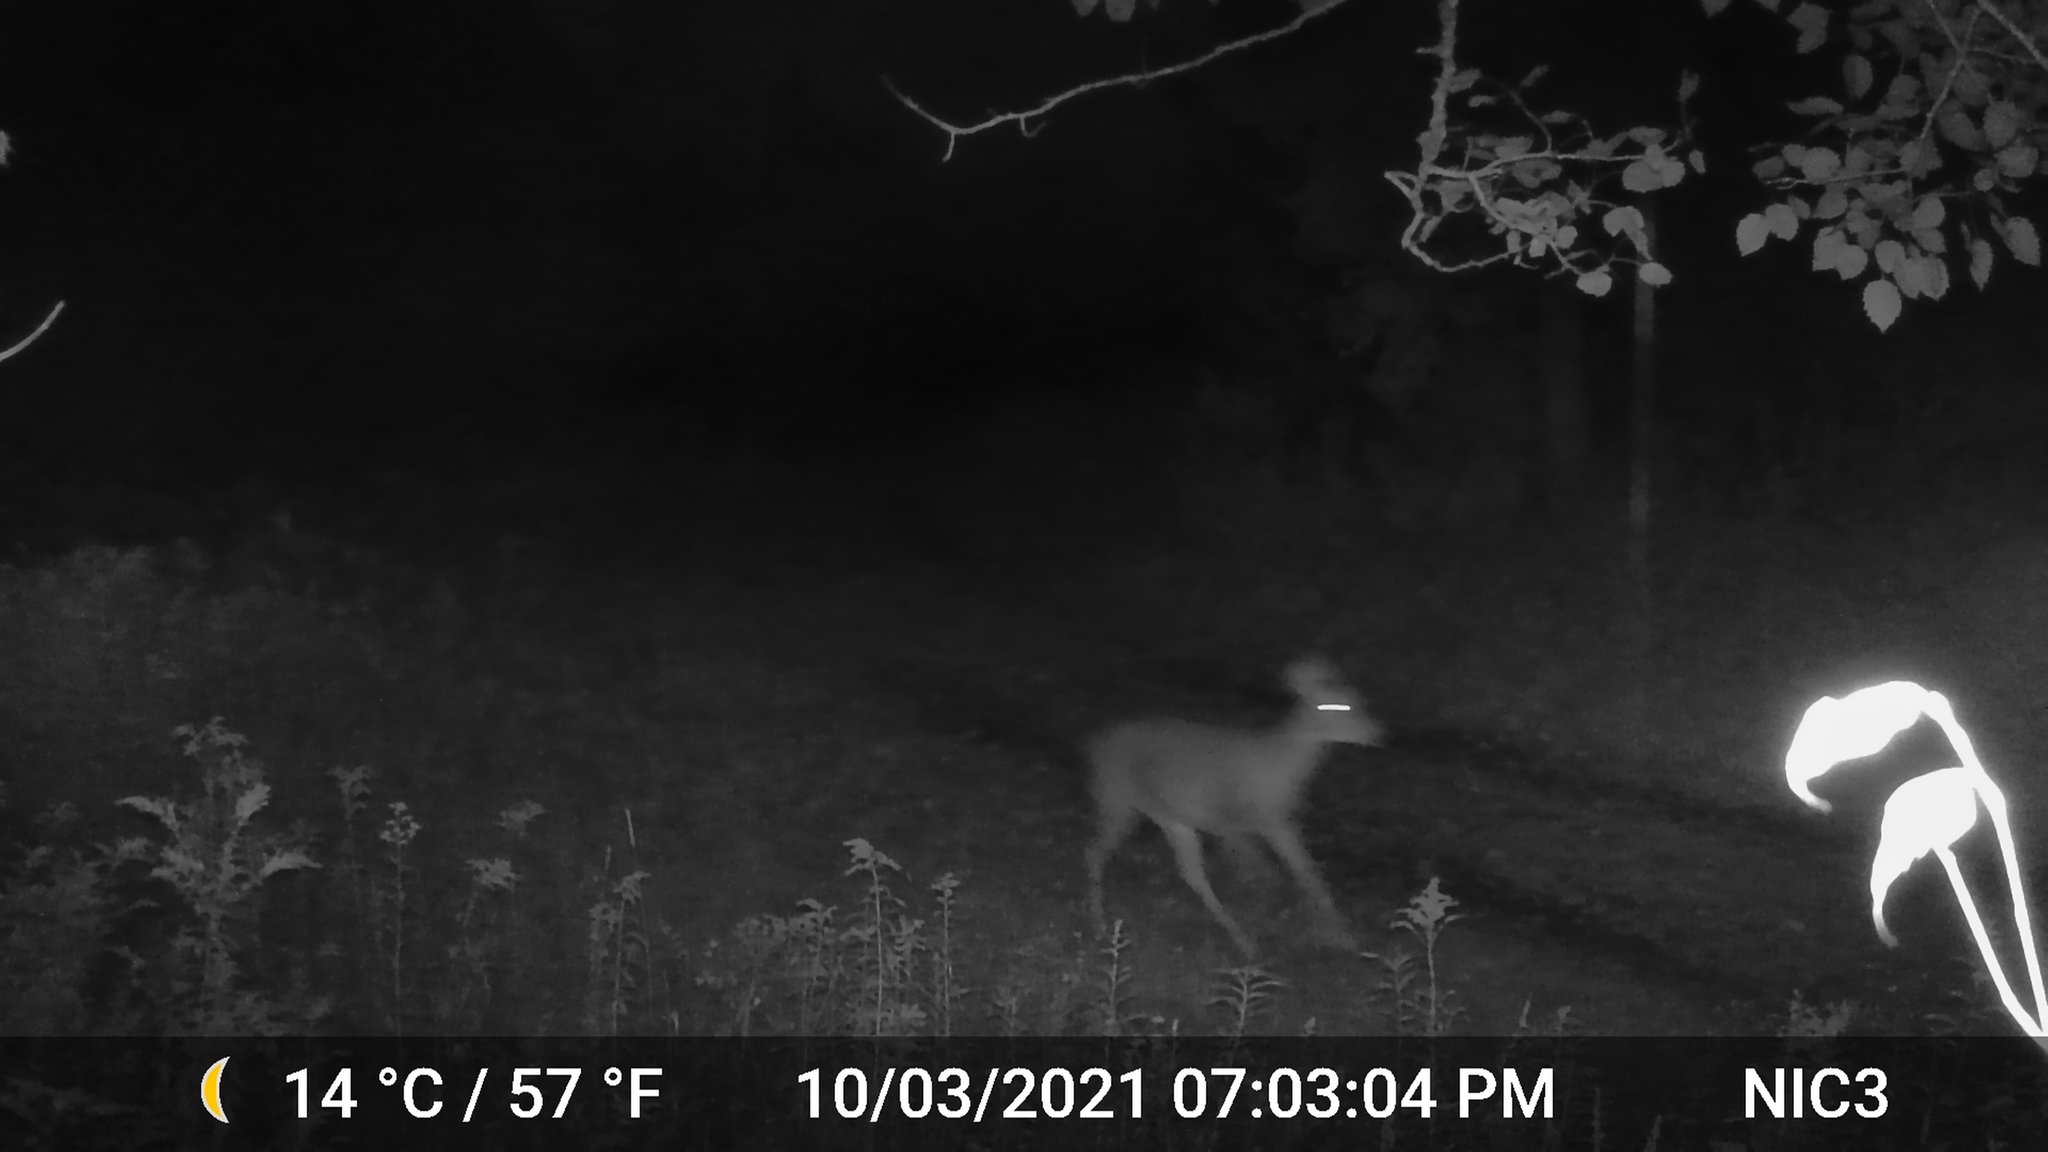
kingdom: Animalia
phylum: Chordata
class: Mammalia
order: Artiodactyla
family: Cervidae
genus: Odocoileus
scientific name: Odocoileus virginianus
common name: White-tailed deer
